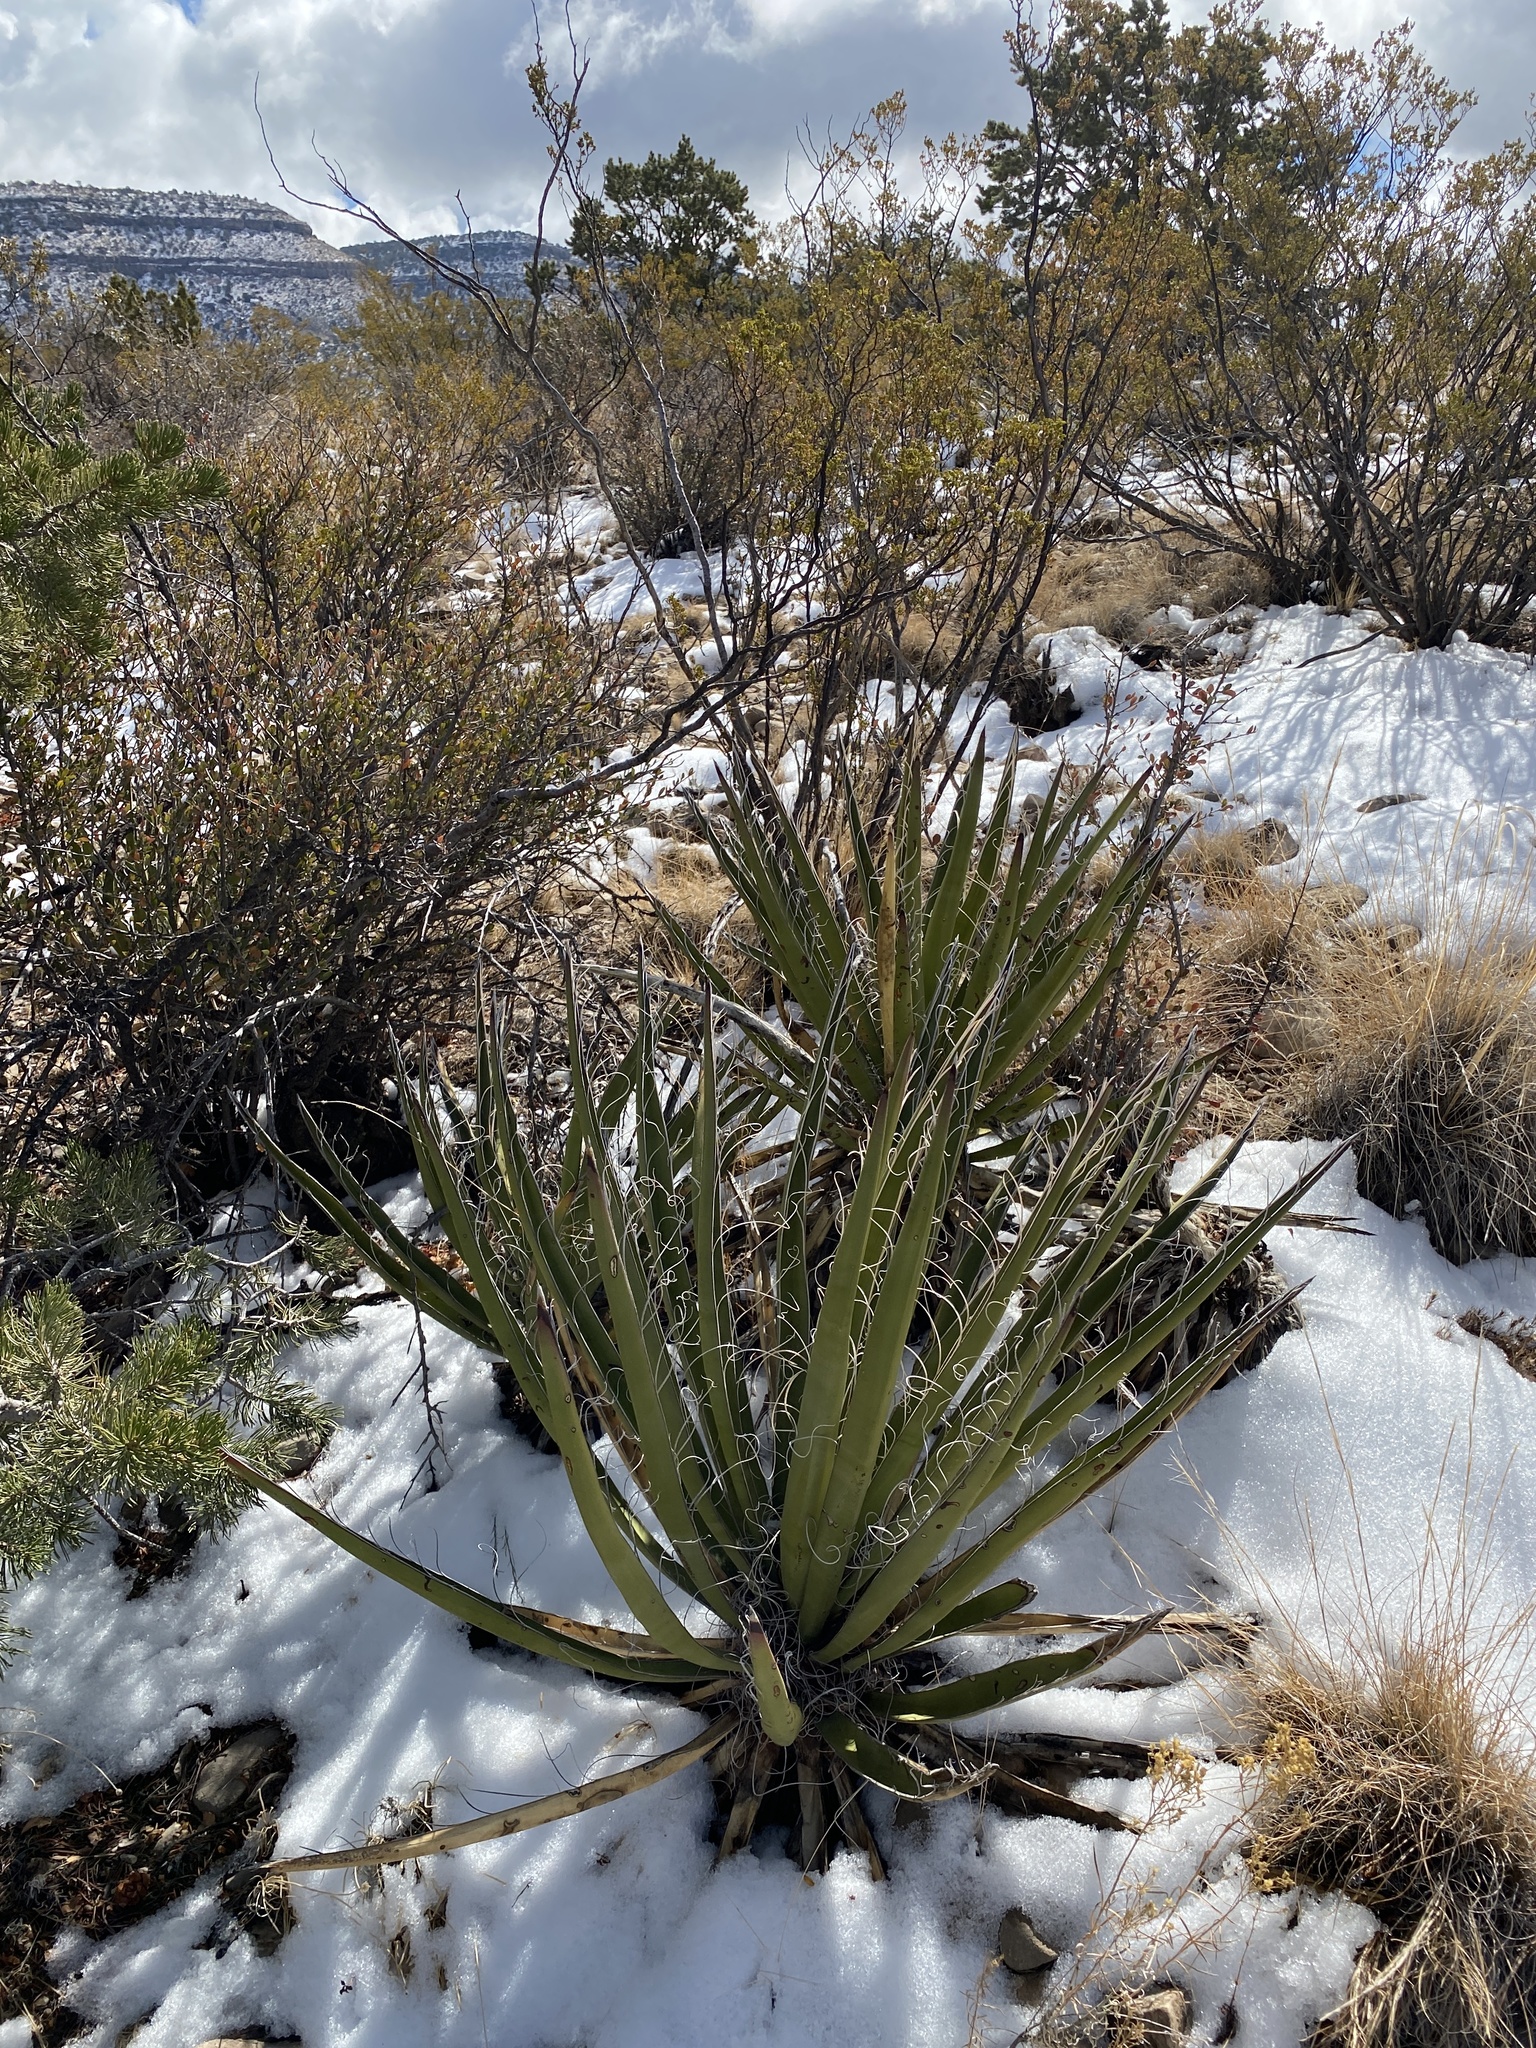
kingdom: Plantae
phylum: Tracheophyta
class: Liliopsida
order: Asparagales
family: Asparagaceae
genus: Yucca
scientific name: Yucca baccata
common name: Banana yucca
